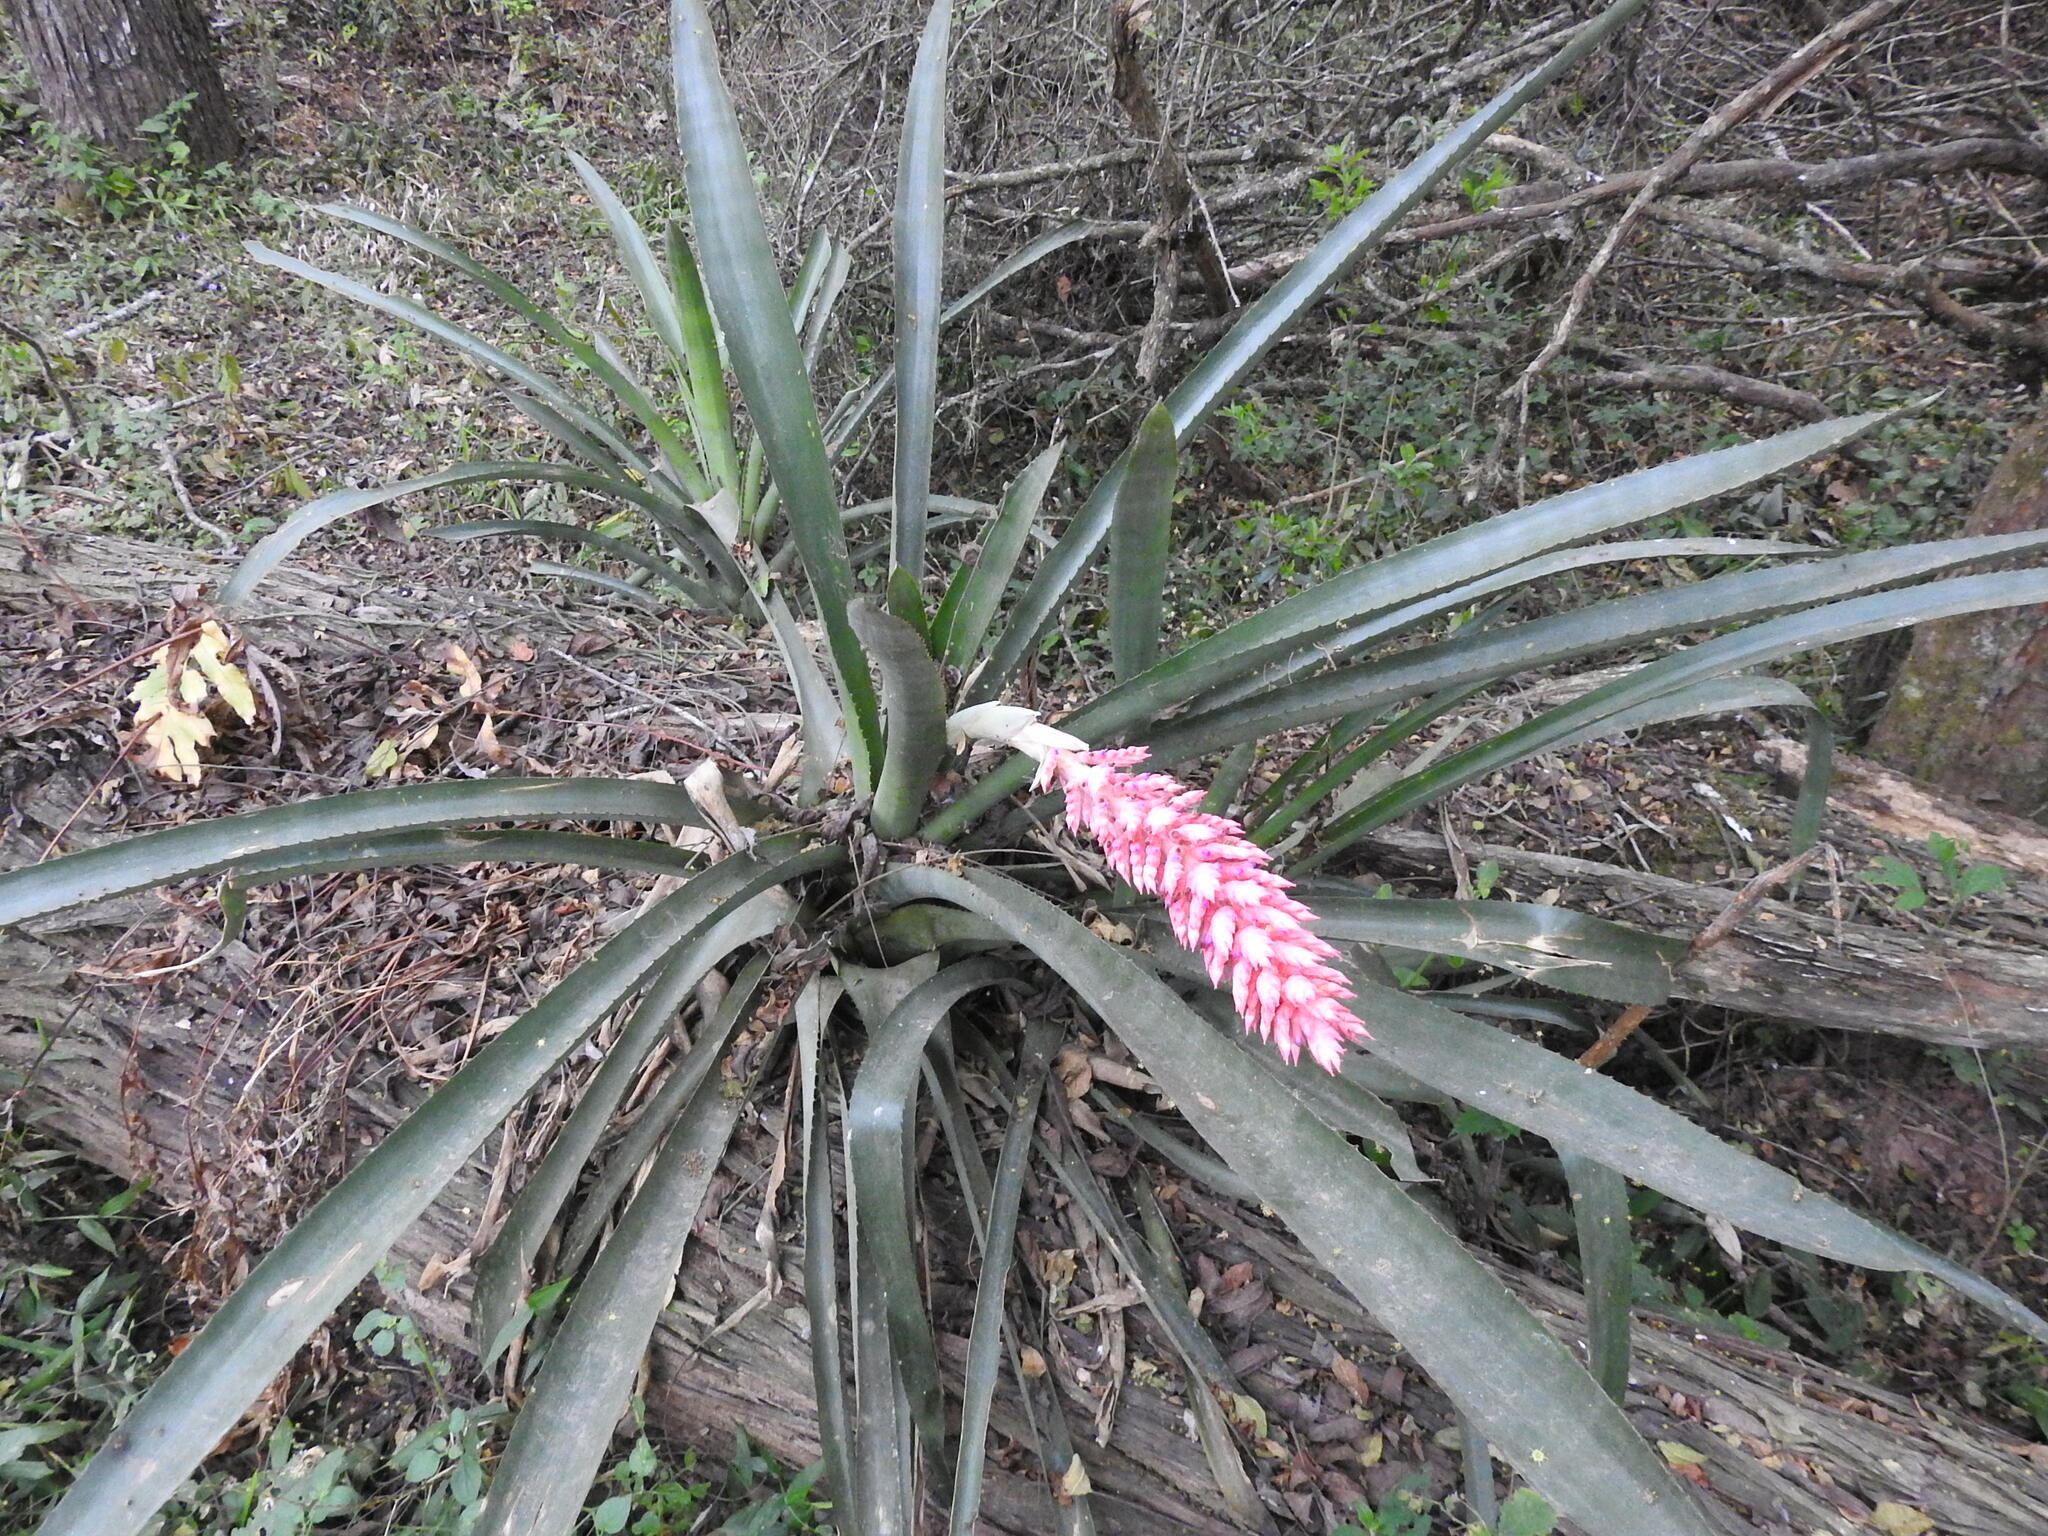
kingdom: Plantae
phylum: Tracheophyta
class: Liliopsida
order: Poales
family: Bromeliaceae
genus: Aechmea
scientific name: Aechmea distichantha
